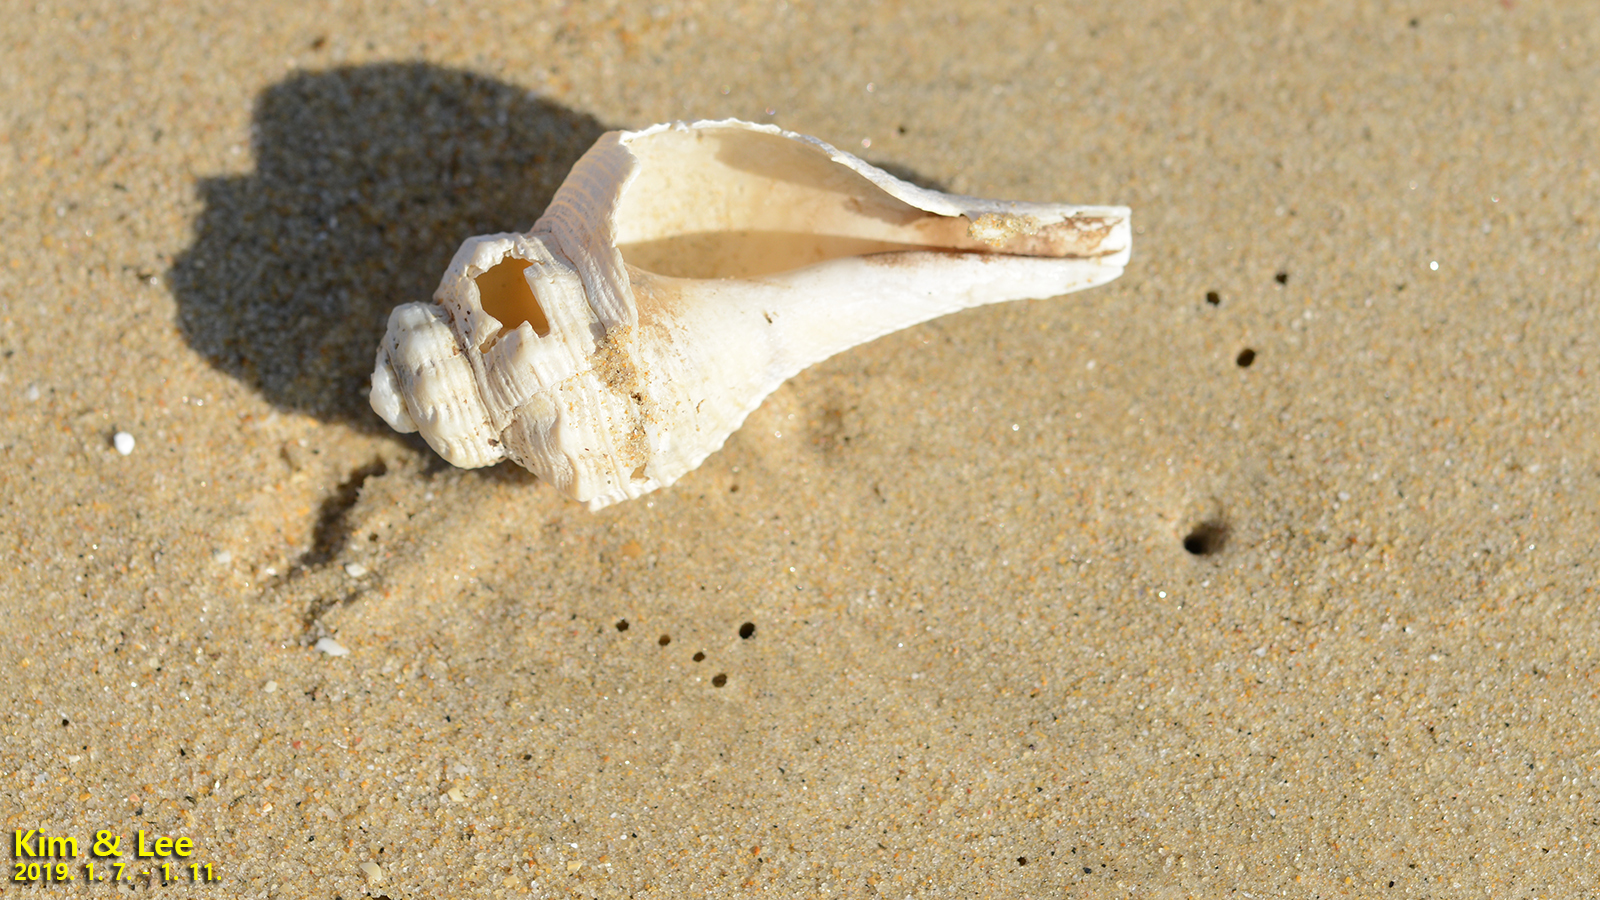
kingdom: Animalia
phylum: Mollusca
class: Gastropoda
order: Neogastropoda
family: Melongenidae
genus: Hemifusus
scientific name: Hemifusus tuba
